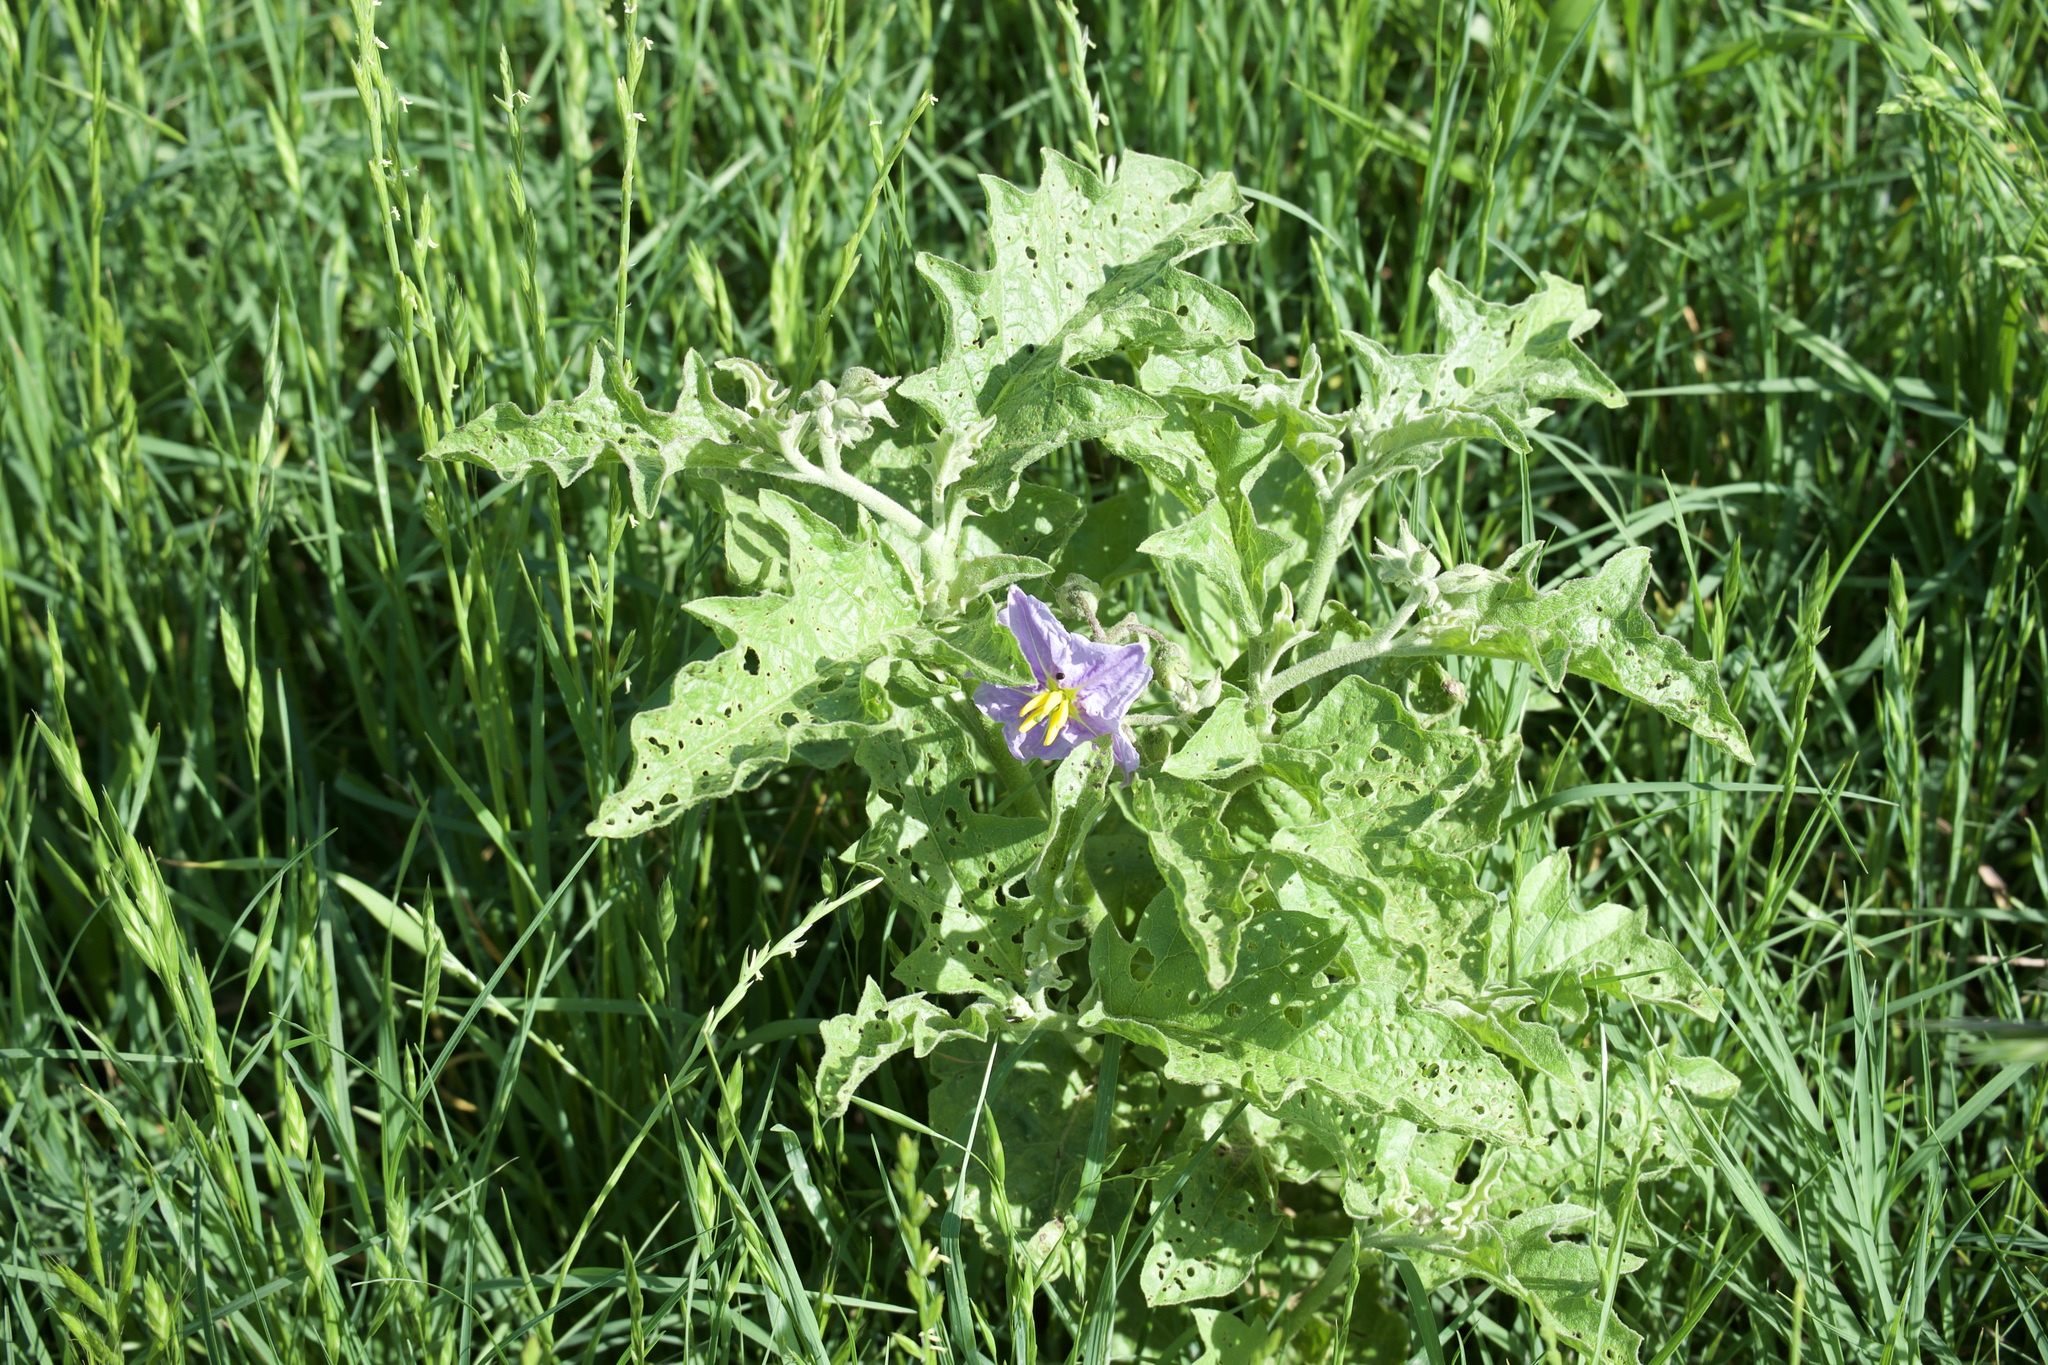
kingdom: Plantae
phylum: Tracheophyta
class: Magnoliopsida
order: Solanales
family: Solanaceae
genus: Solanum
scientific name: Solanum dimidiatum
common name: Carolina horse-nettle
